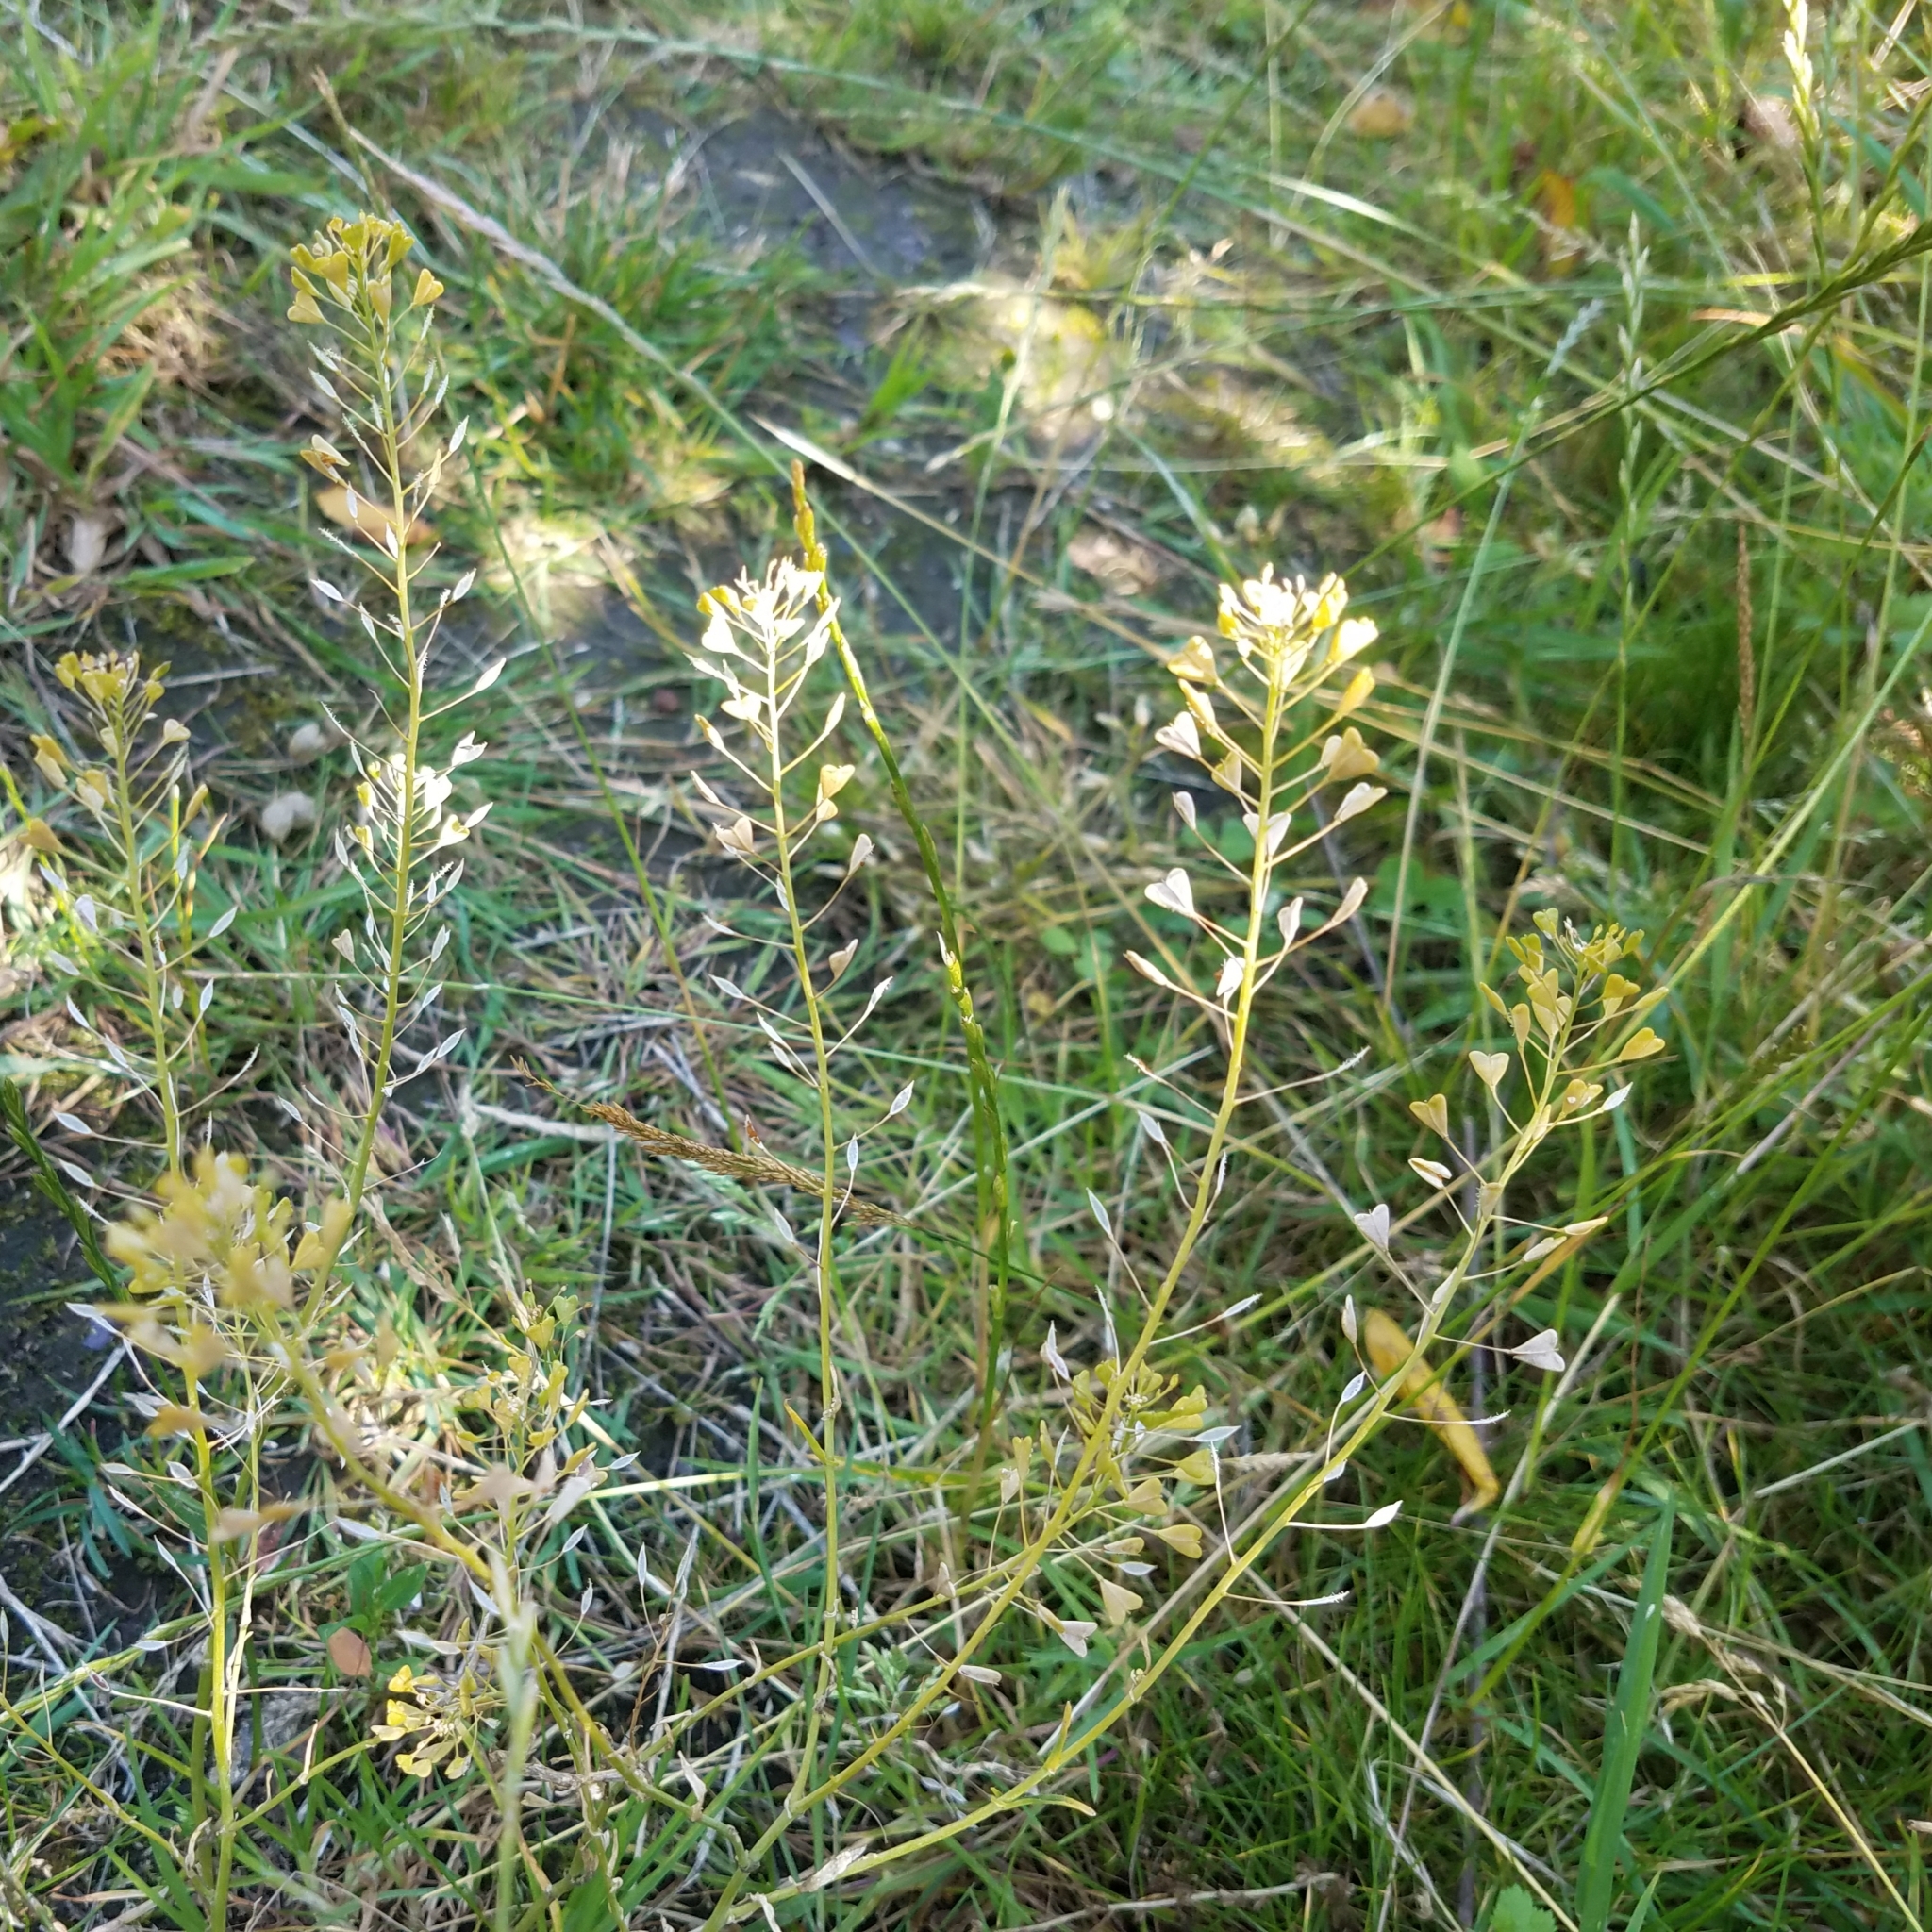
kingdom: Plantae
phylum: Tracheophyta
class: Magnoliopsida
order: Brassicales
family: Brassicaceae
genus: Capsella
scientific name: Capsella bursa-pastoris
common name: Shepherd's purse
